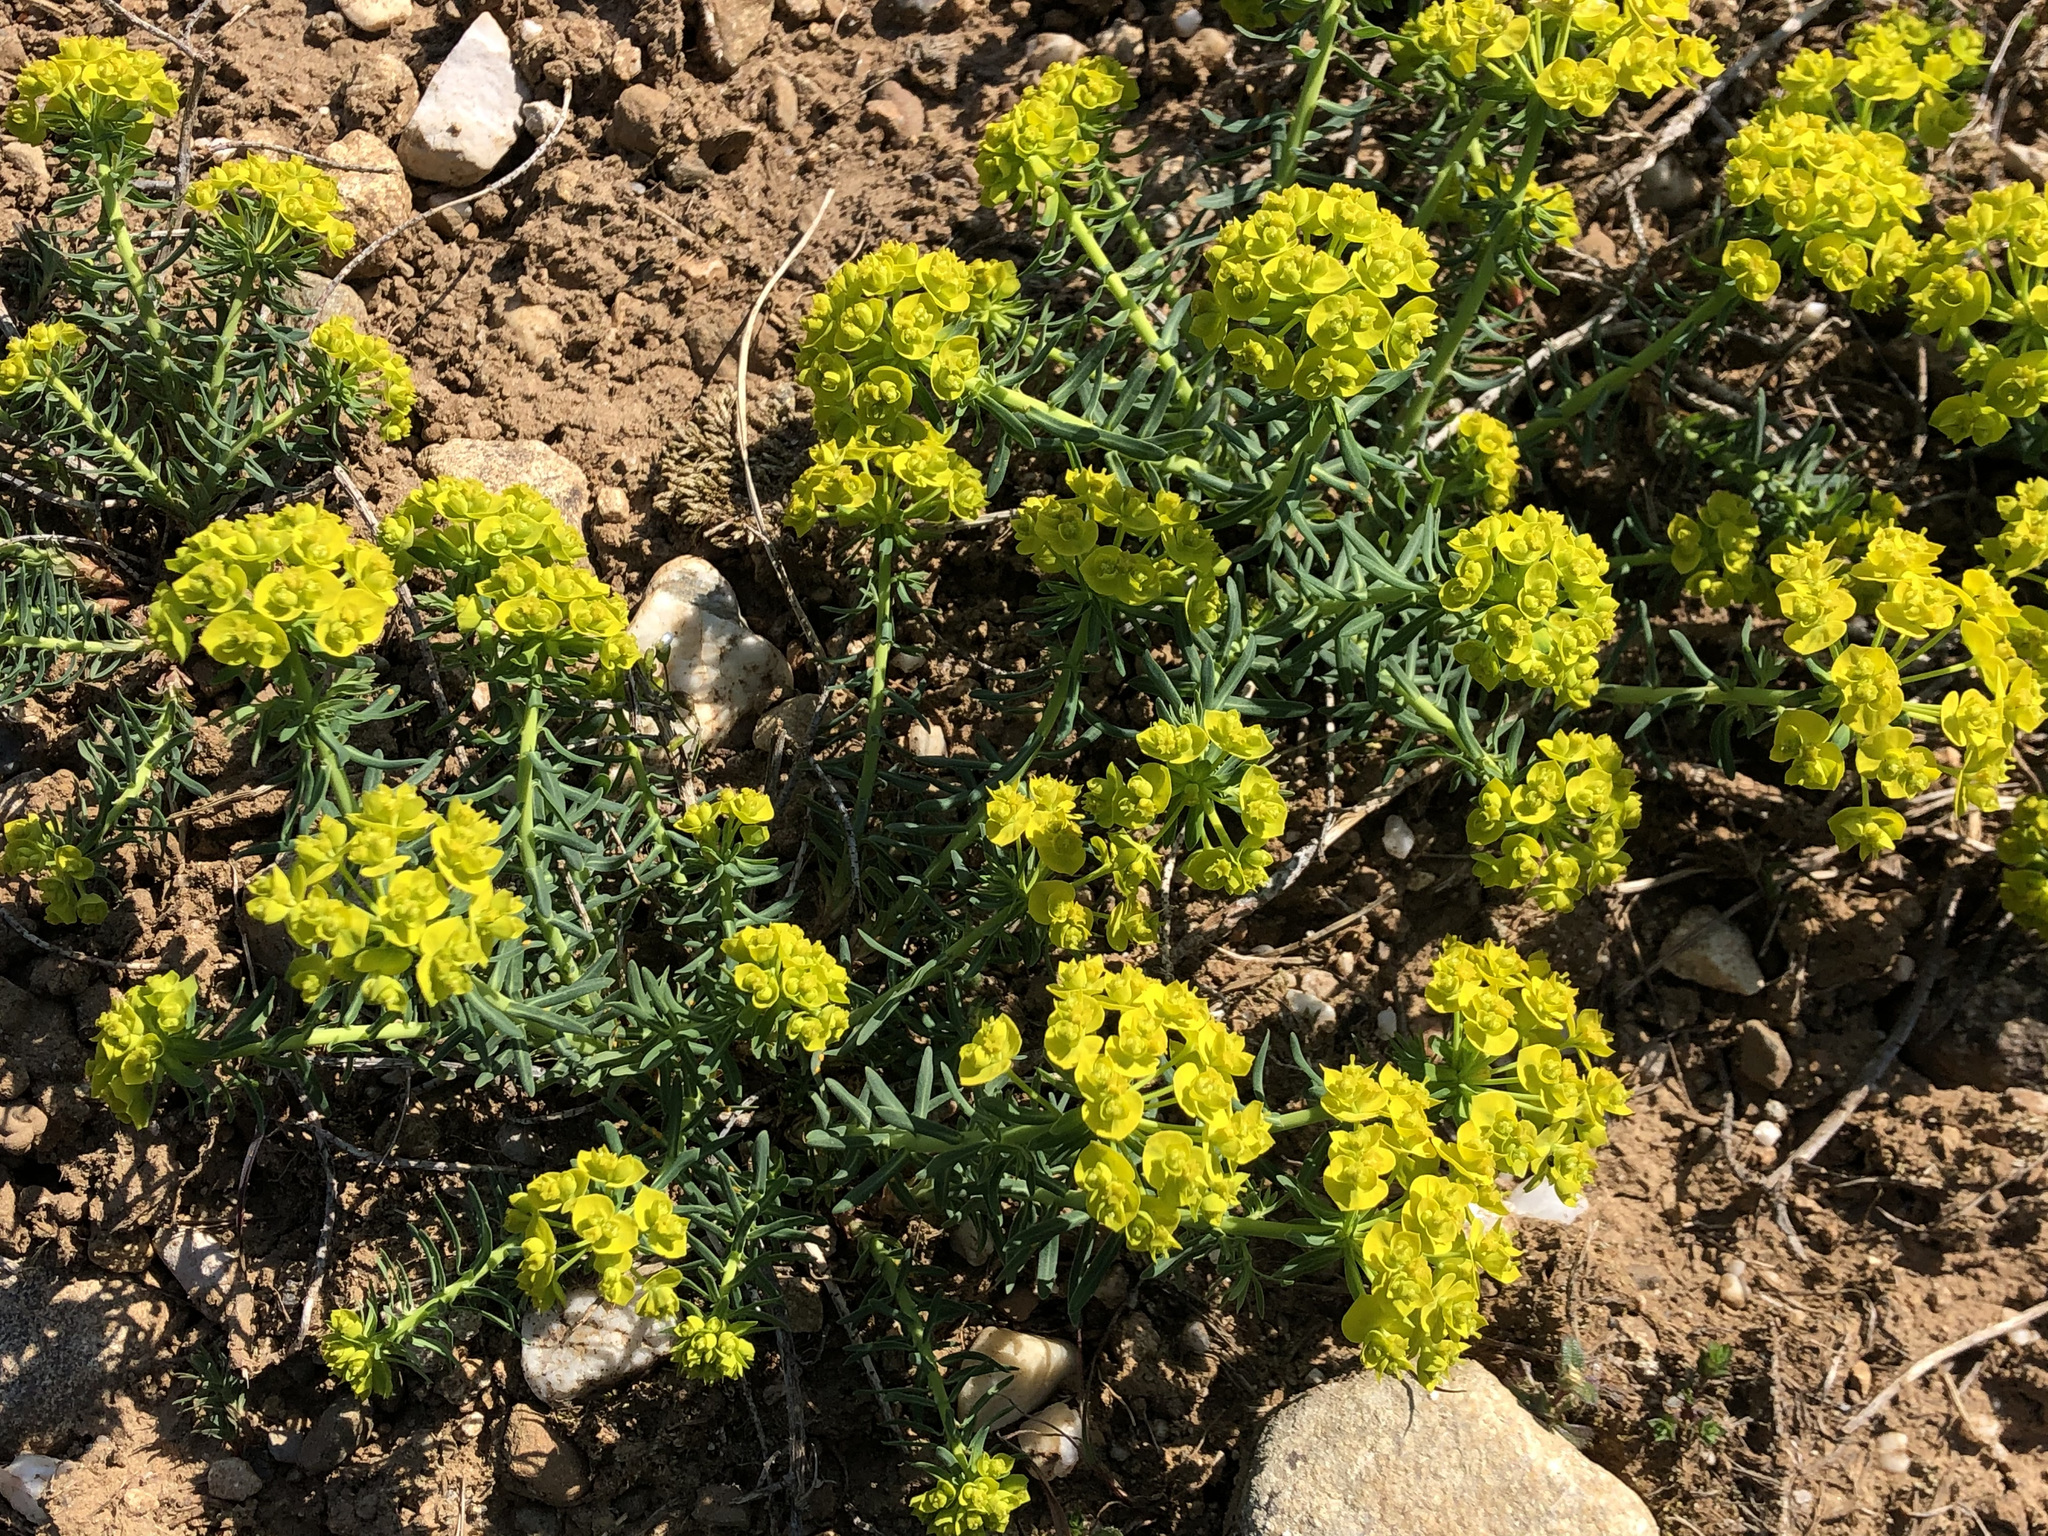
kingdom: Plantae
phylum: Tracheophyta
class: Magnoliopsida
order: Malpighiales
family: Euphorbiaceae
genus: Euphorbia
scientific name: Euphorbia cyparissias
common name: Cypress spurge
